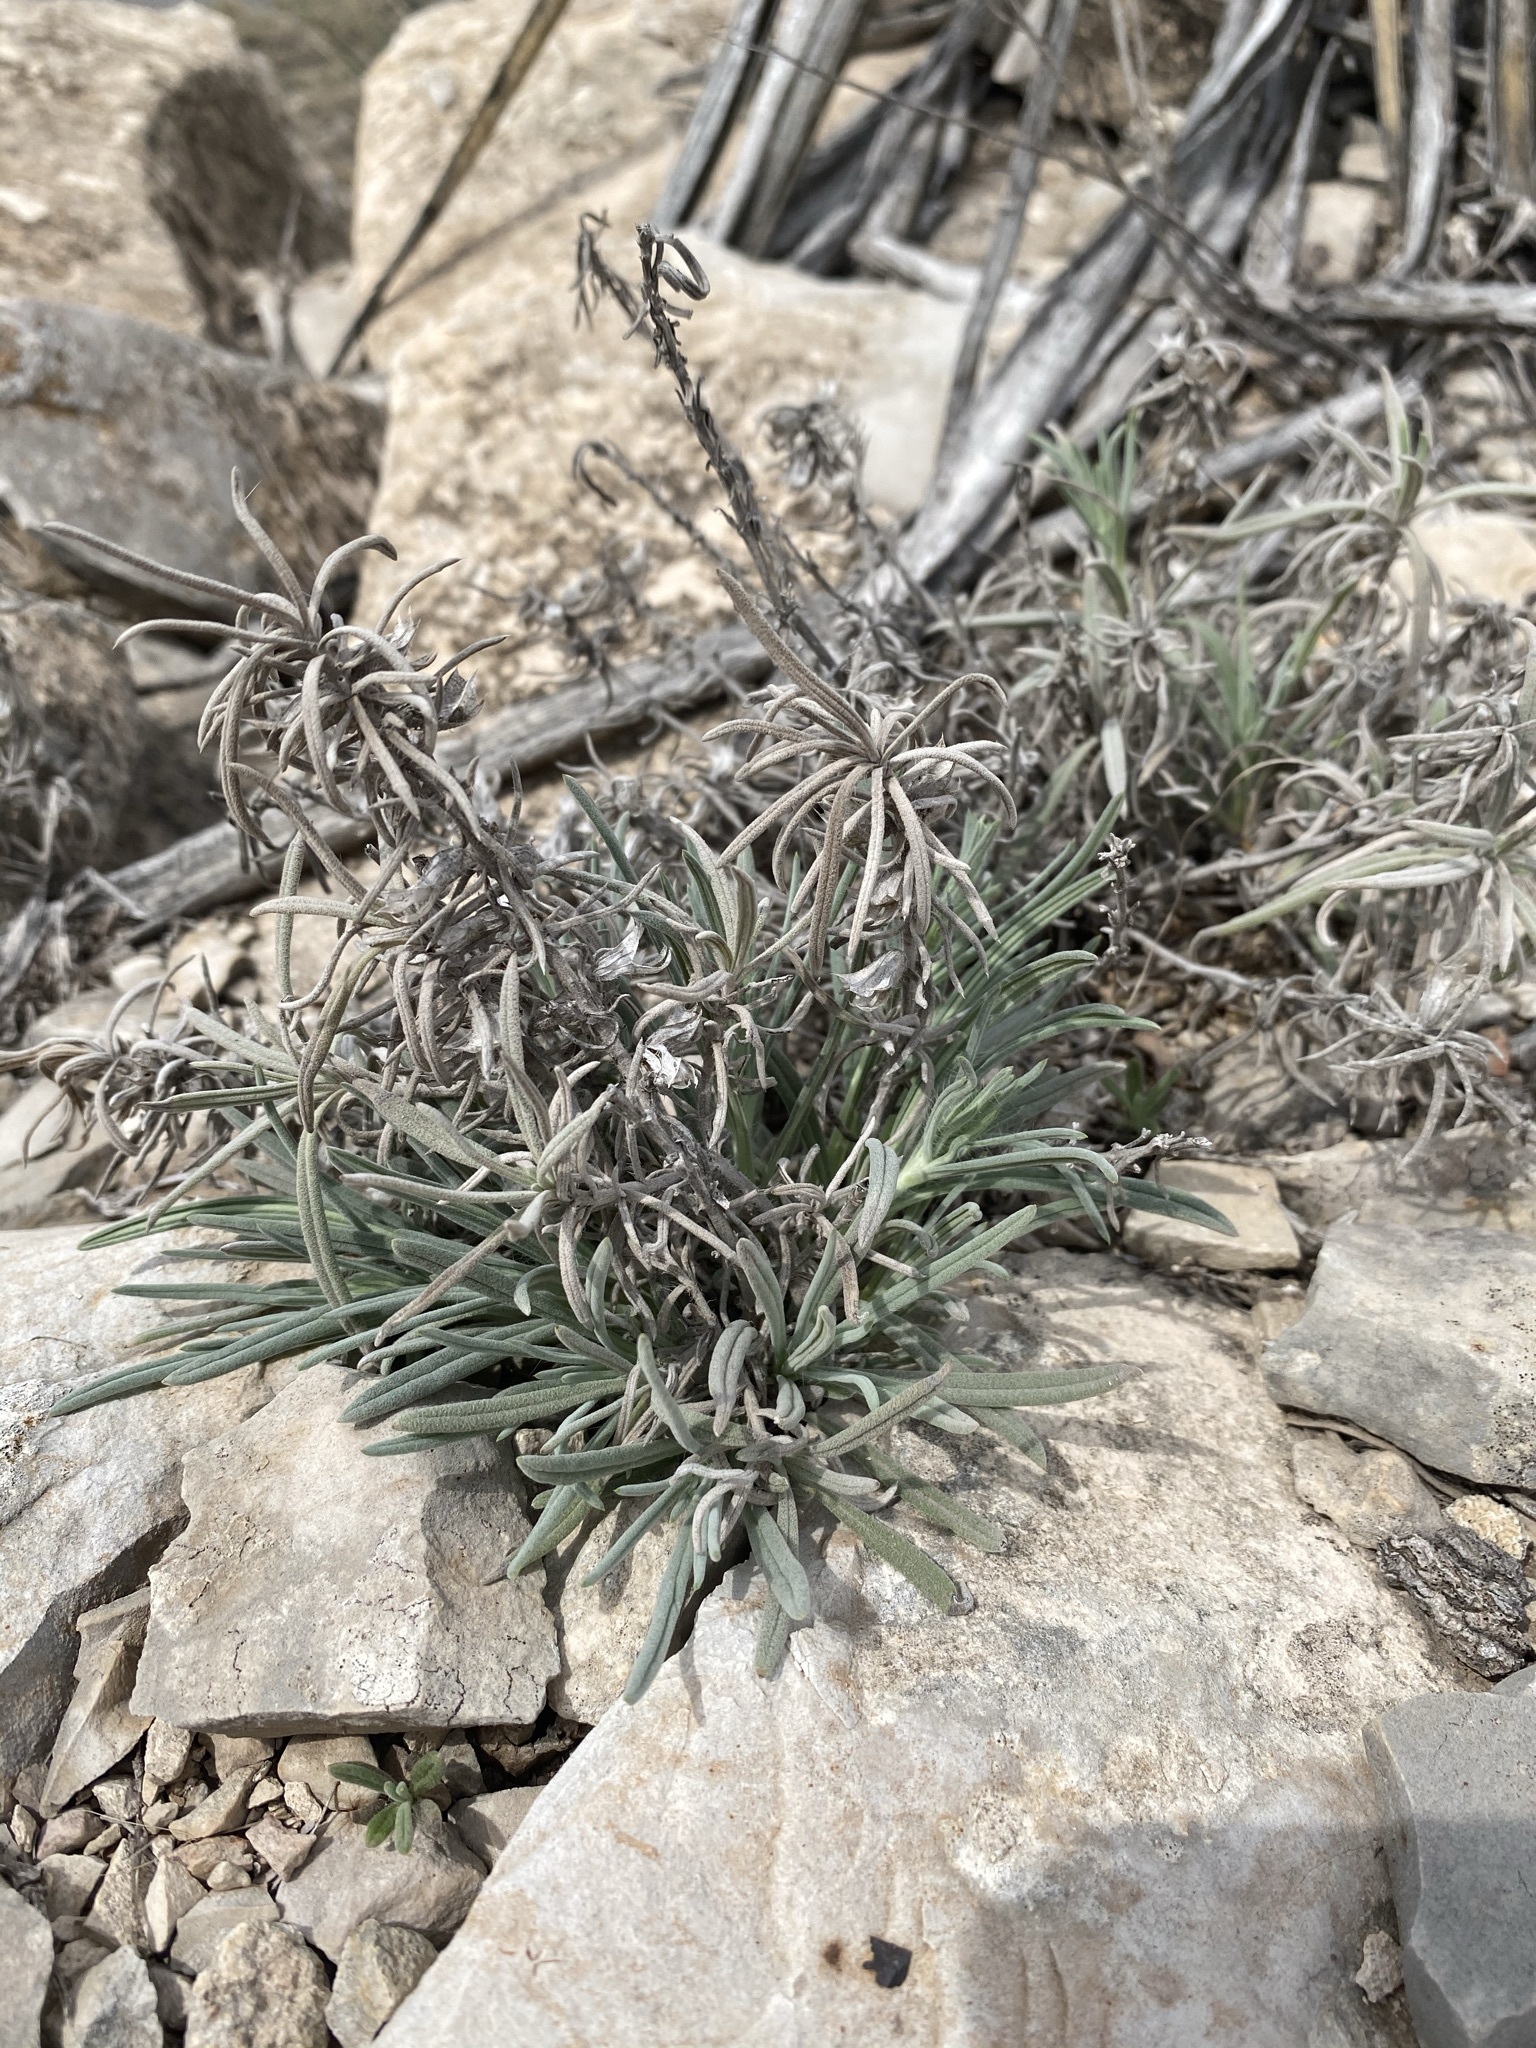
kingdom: Plantae
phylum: Tracheophyta
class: Magnoliopsida
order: Lamiales
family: Lamiaceae
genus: Salvia
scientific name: Salvia whitehousei
